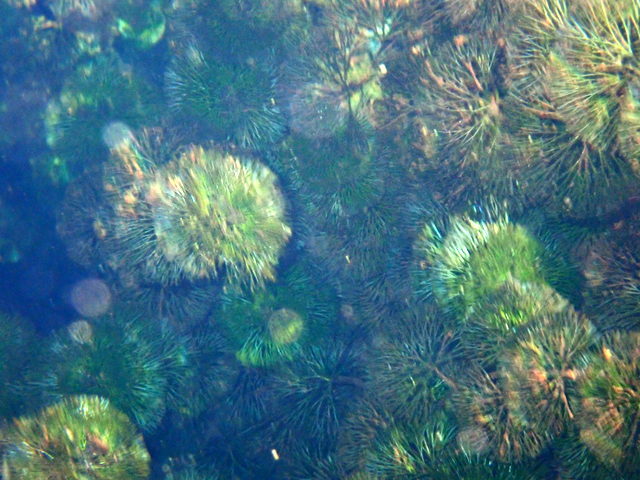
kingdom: Plantae
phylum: Tracheophyta
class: Magnoliopsida
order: Nymphaeales
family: Cabombaceae
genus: Cabomba
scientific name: Cabomba caroliniana
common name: Fanwort
